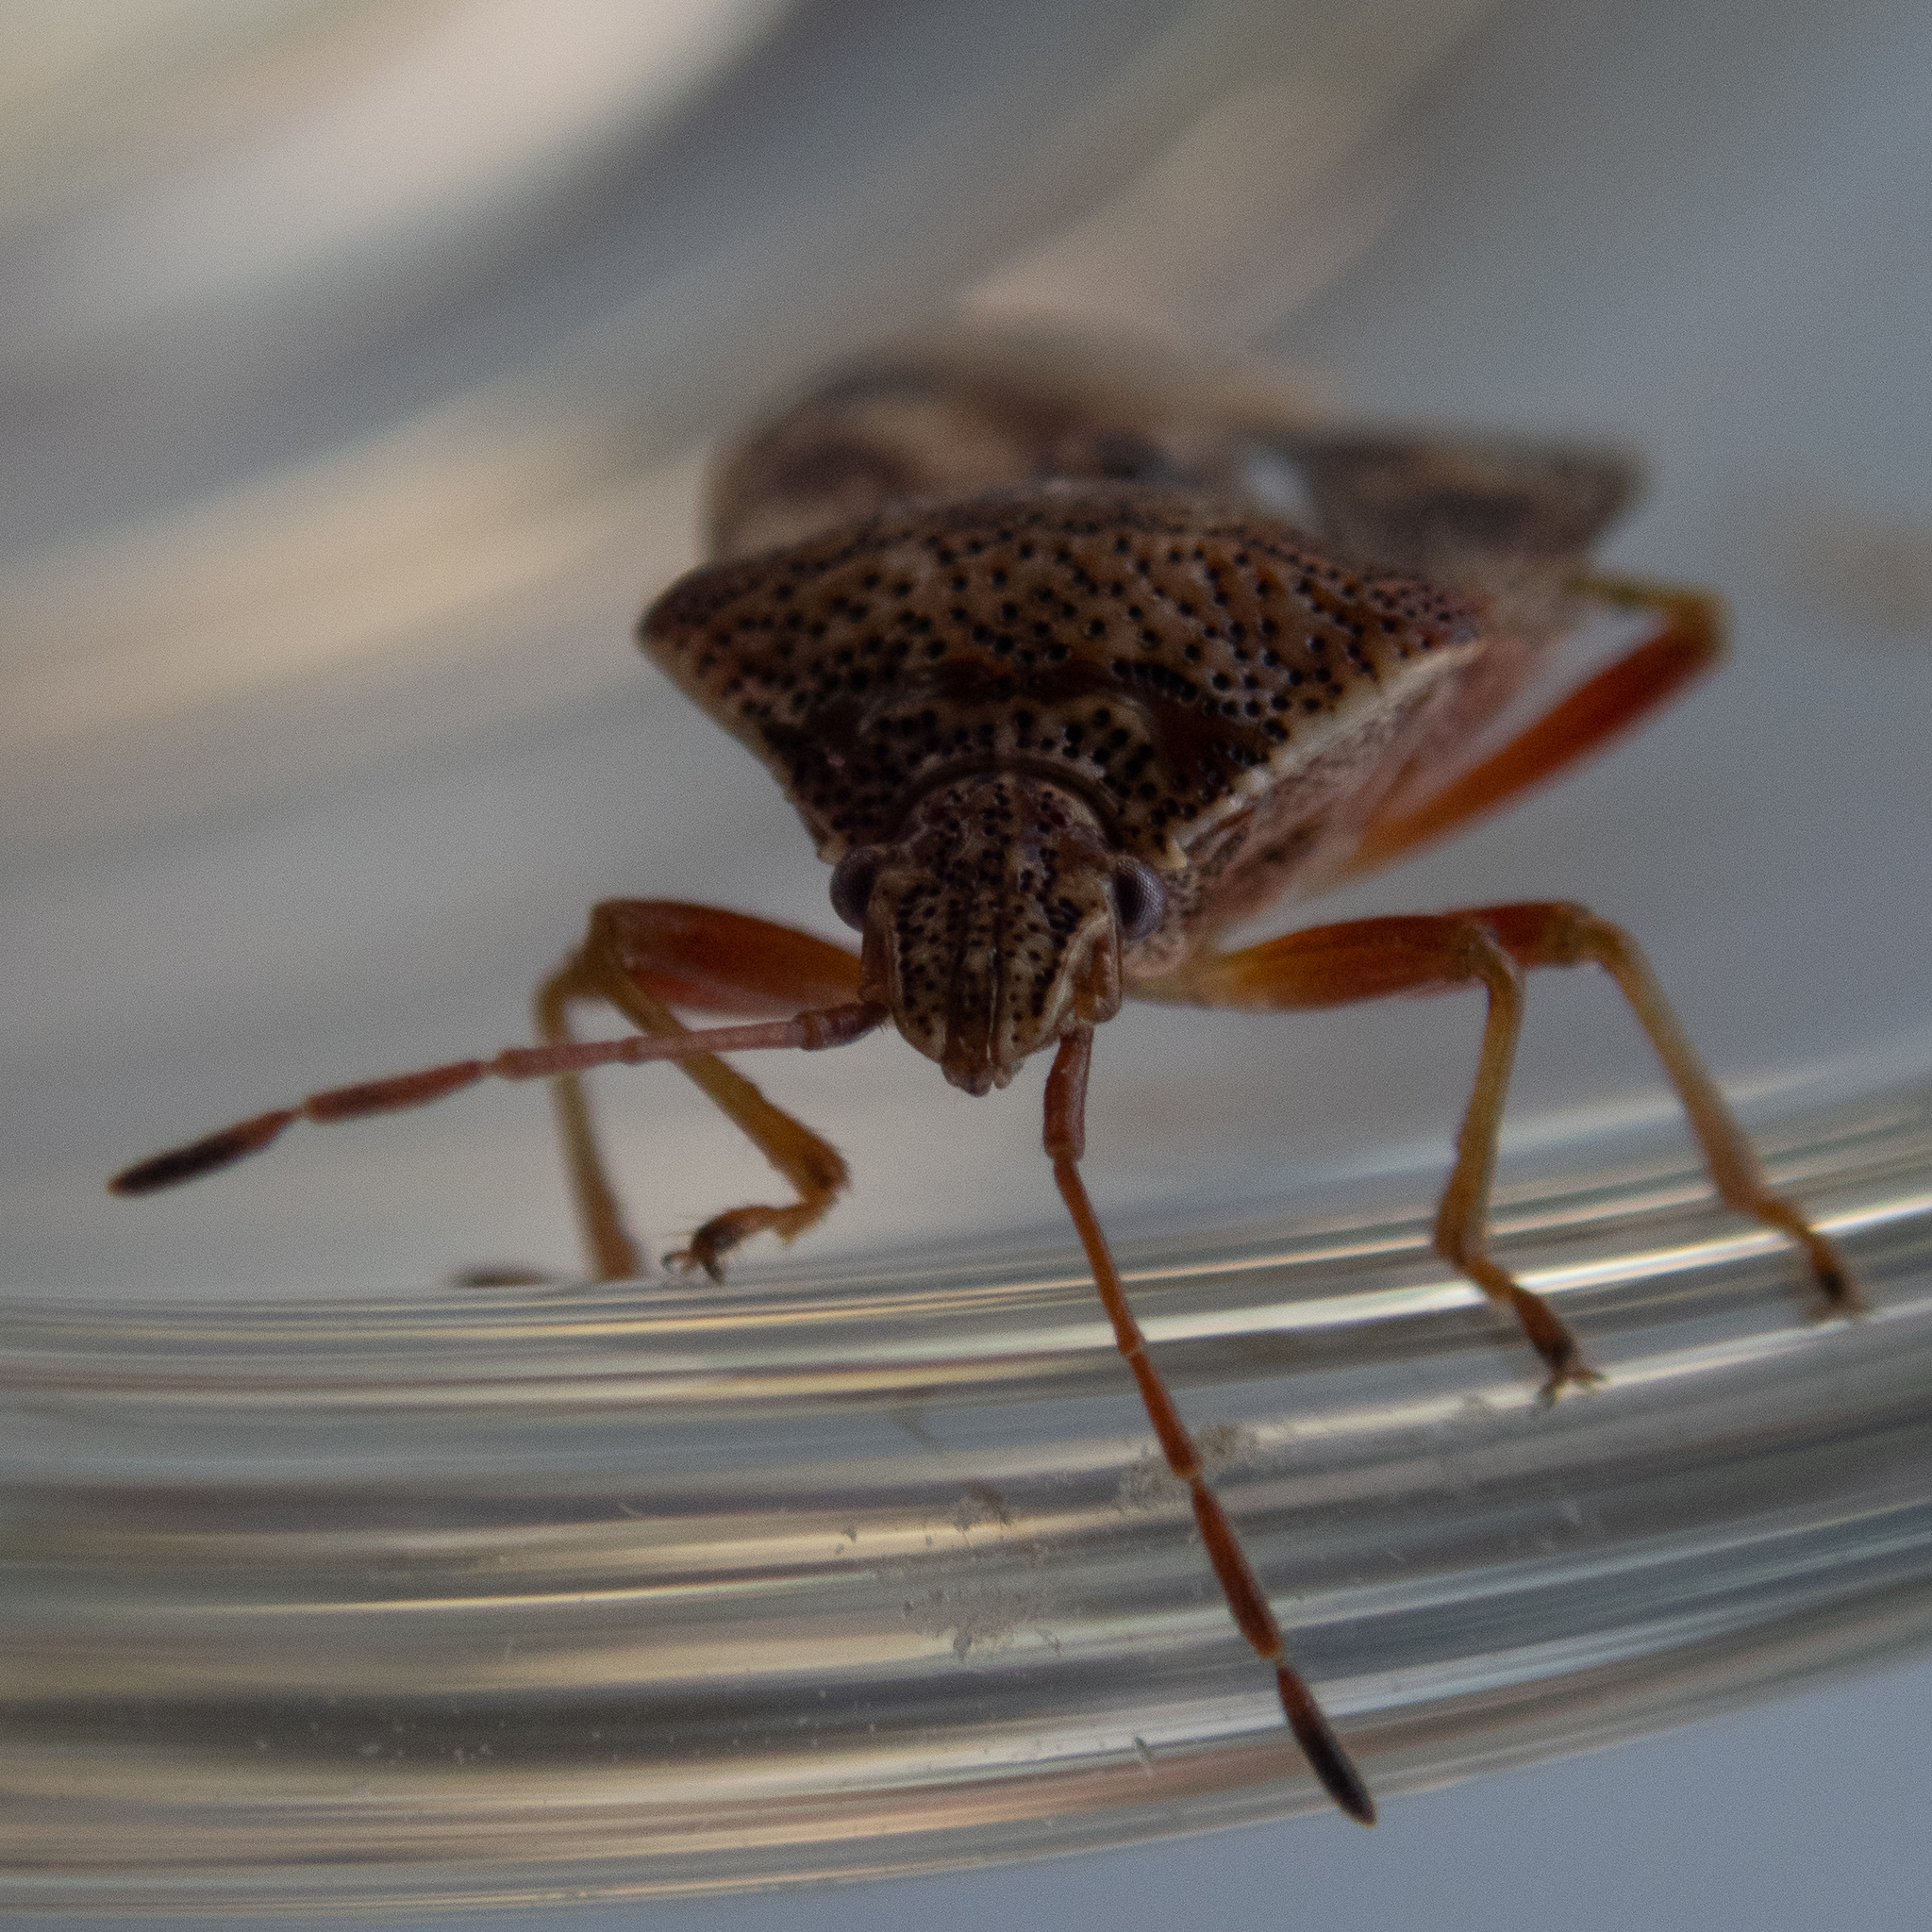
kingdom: Animalia
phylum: Arthropoda
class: Insecta
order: Hemiptera
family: Acanthosomatidae
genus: Elasmucha
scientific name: Elasmucha lateralis
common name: Shield bug
